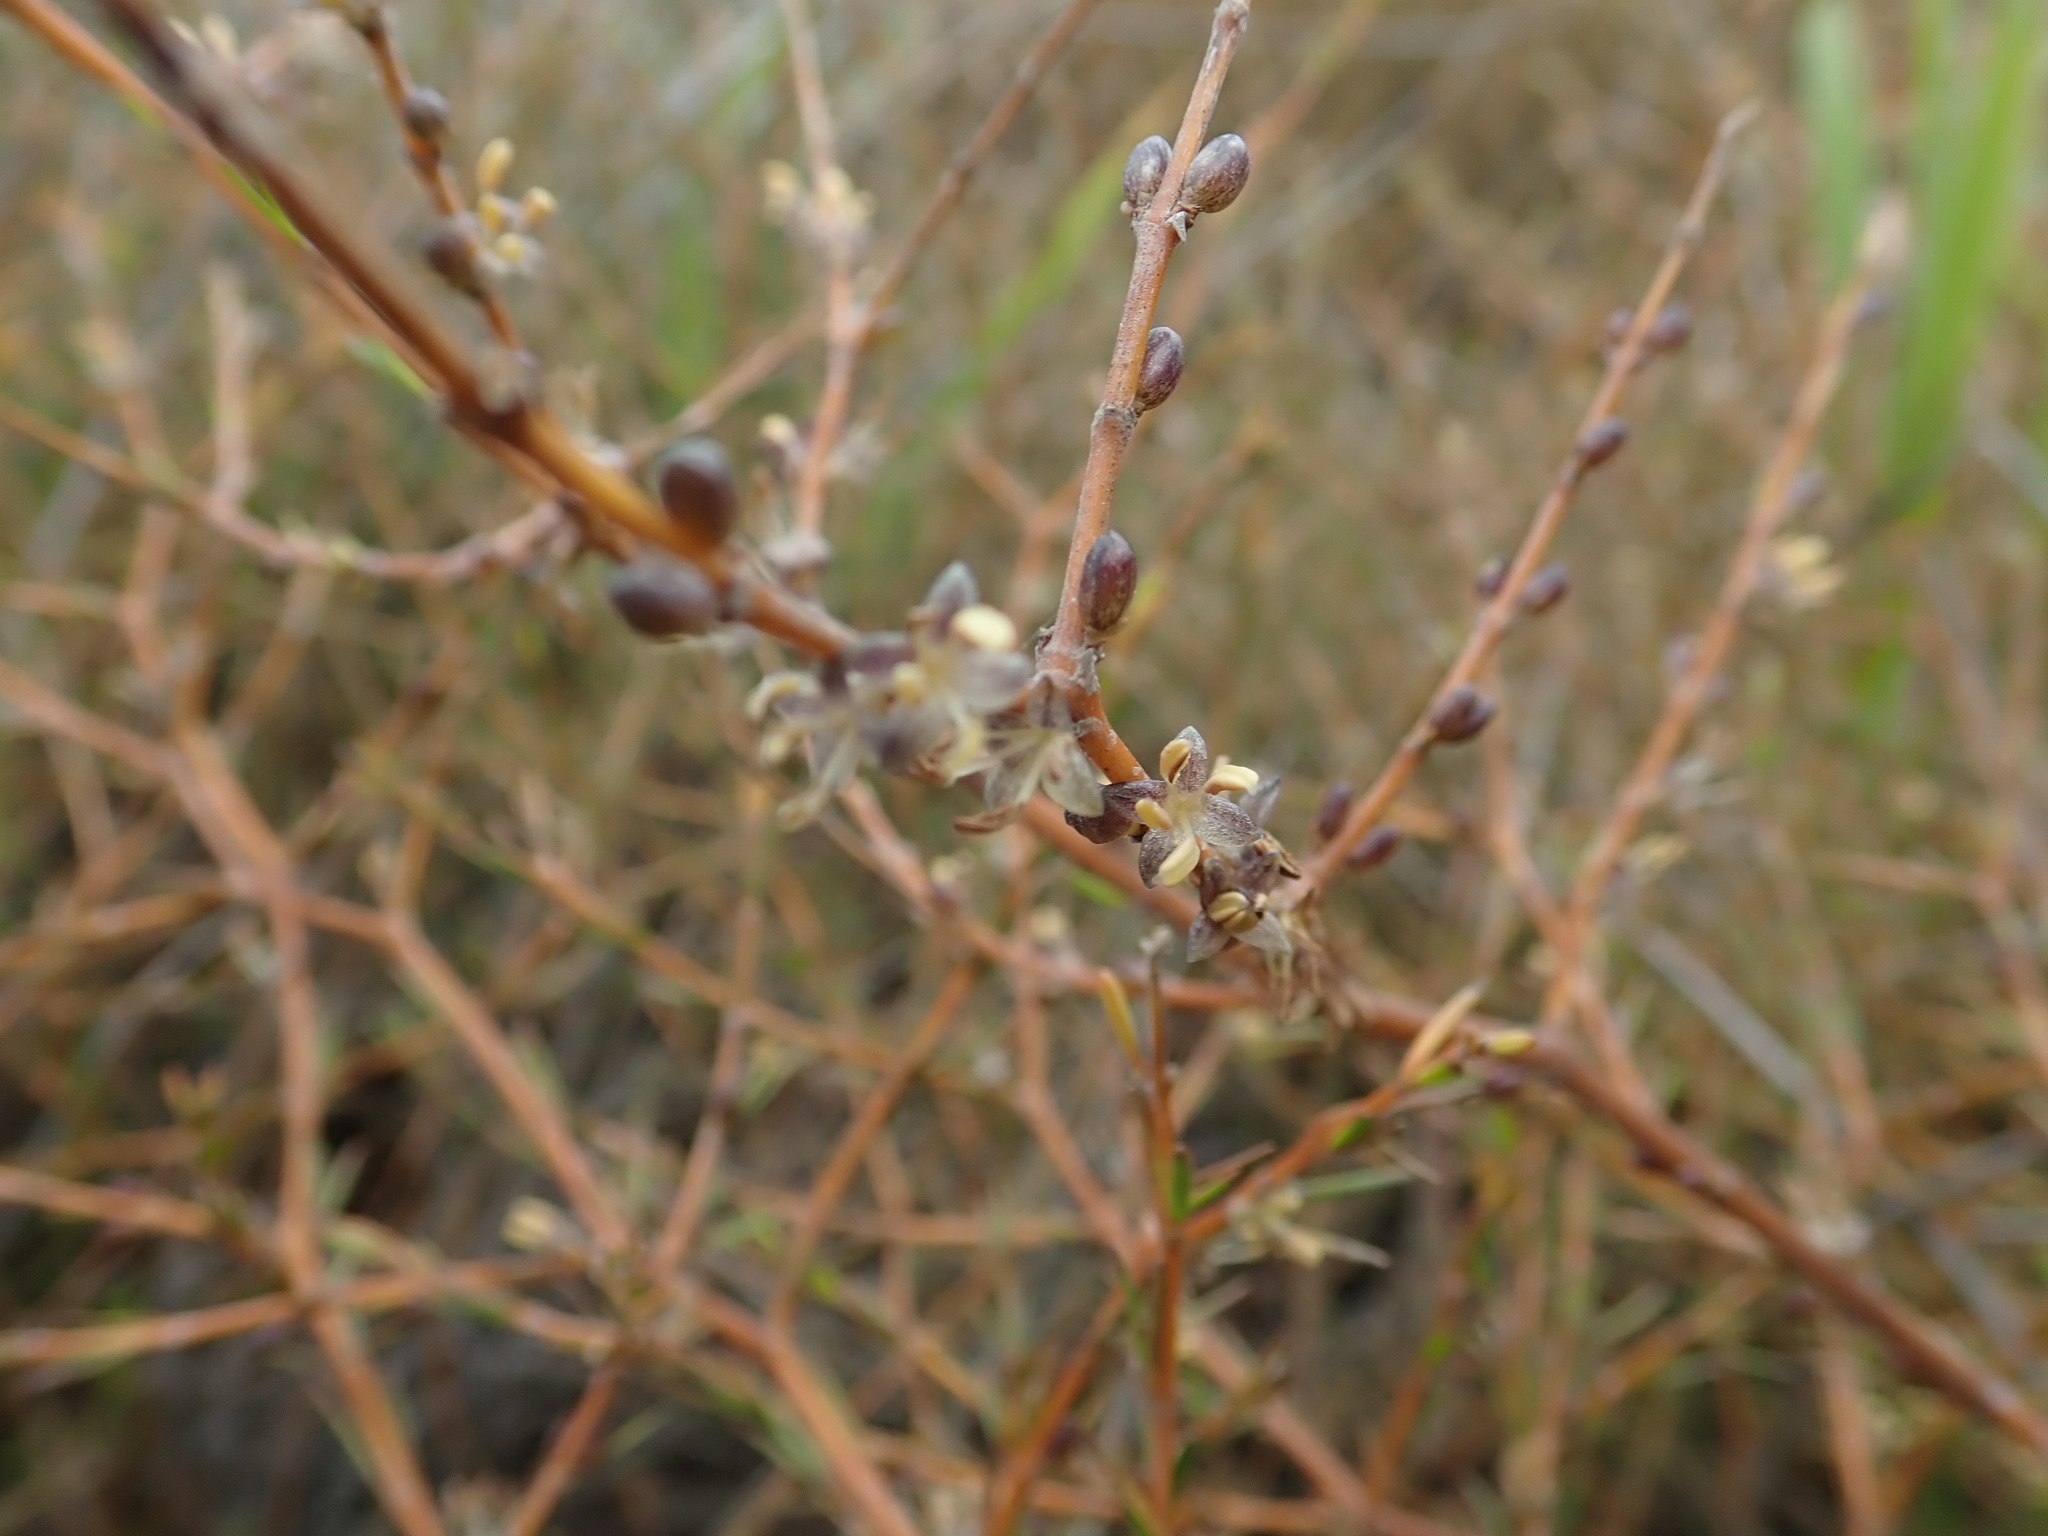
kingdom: Plantae
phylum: Tracheophyta
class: Magnoliopsida
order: Gentianales
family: Rubiaceae
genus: Coprosma
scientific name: Coprosma acerosa
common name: Sand coprosma
